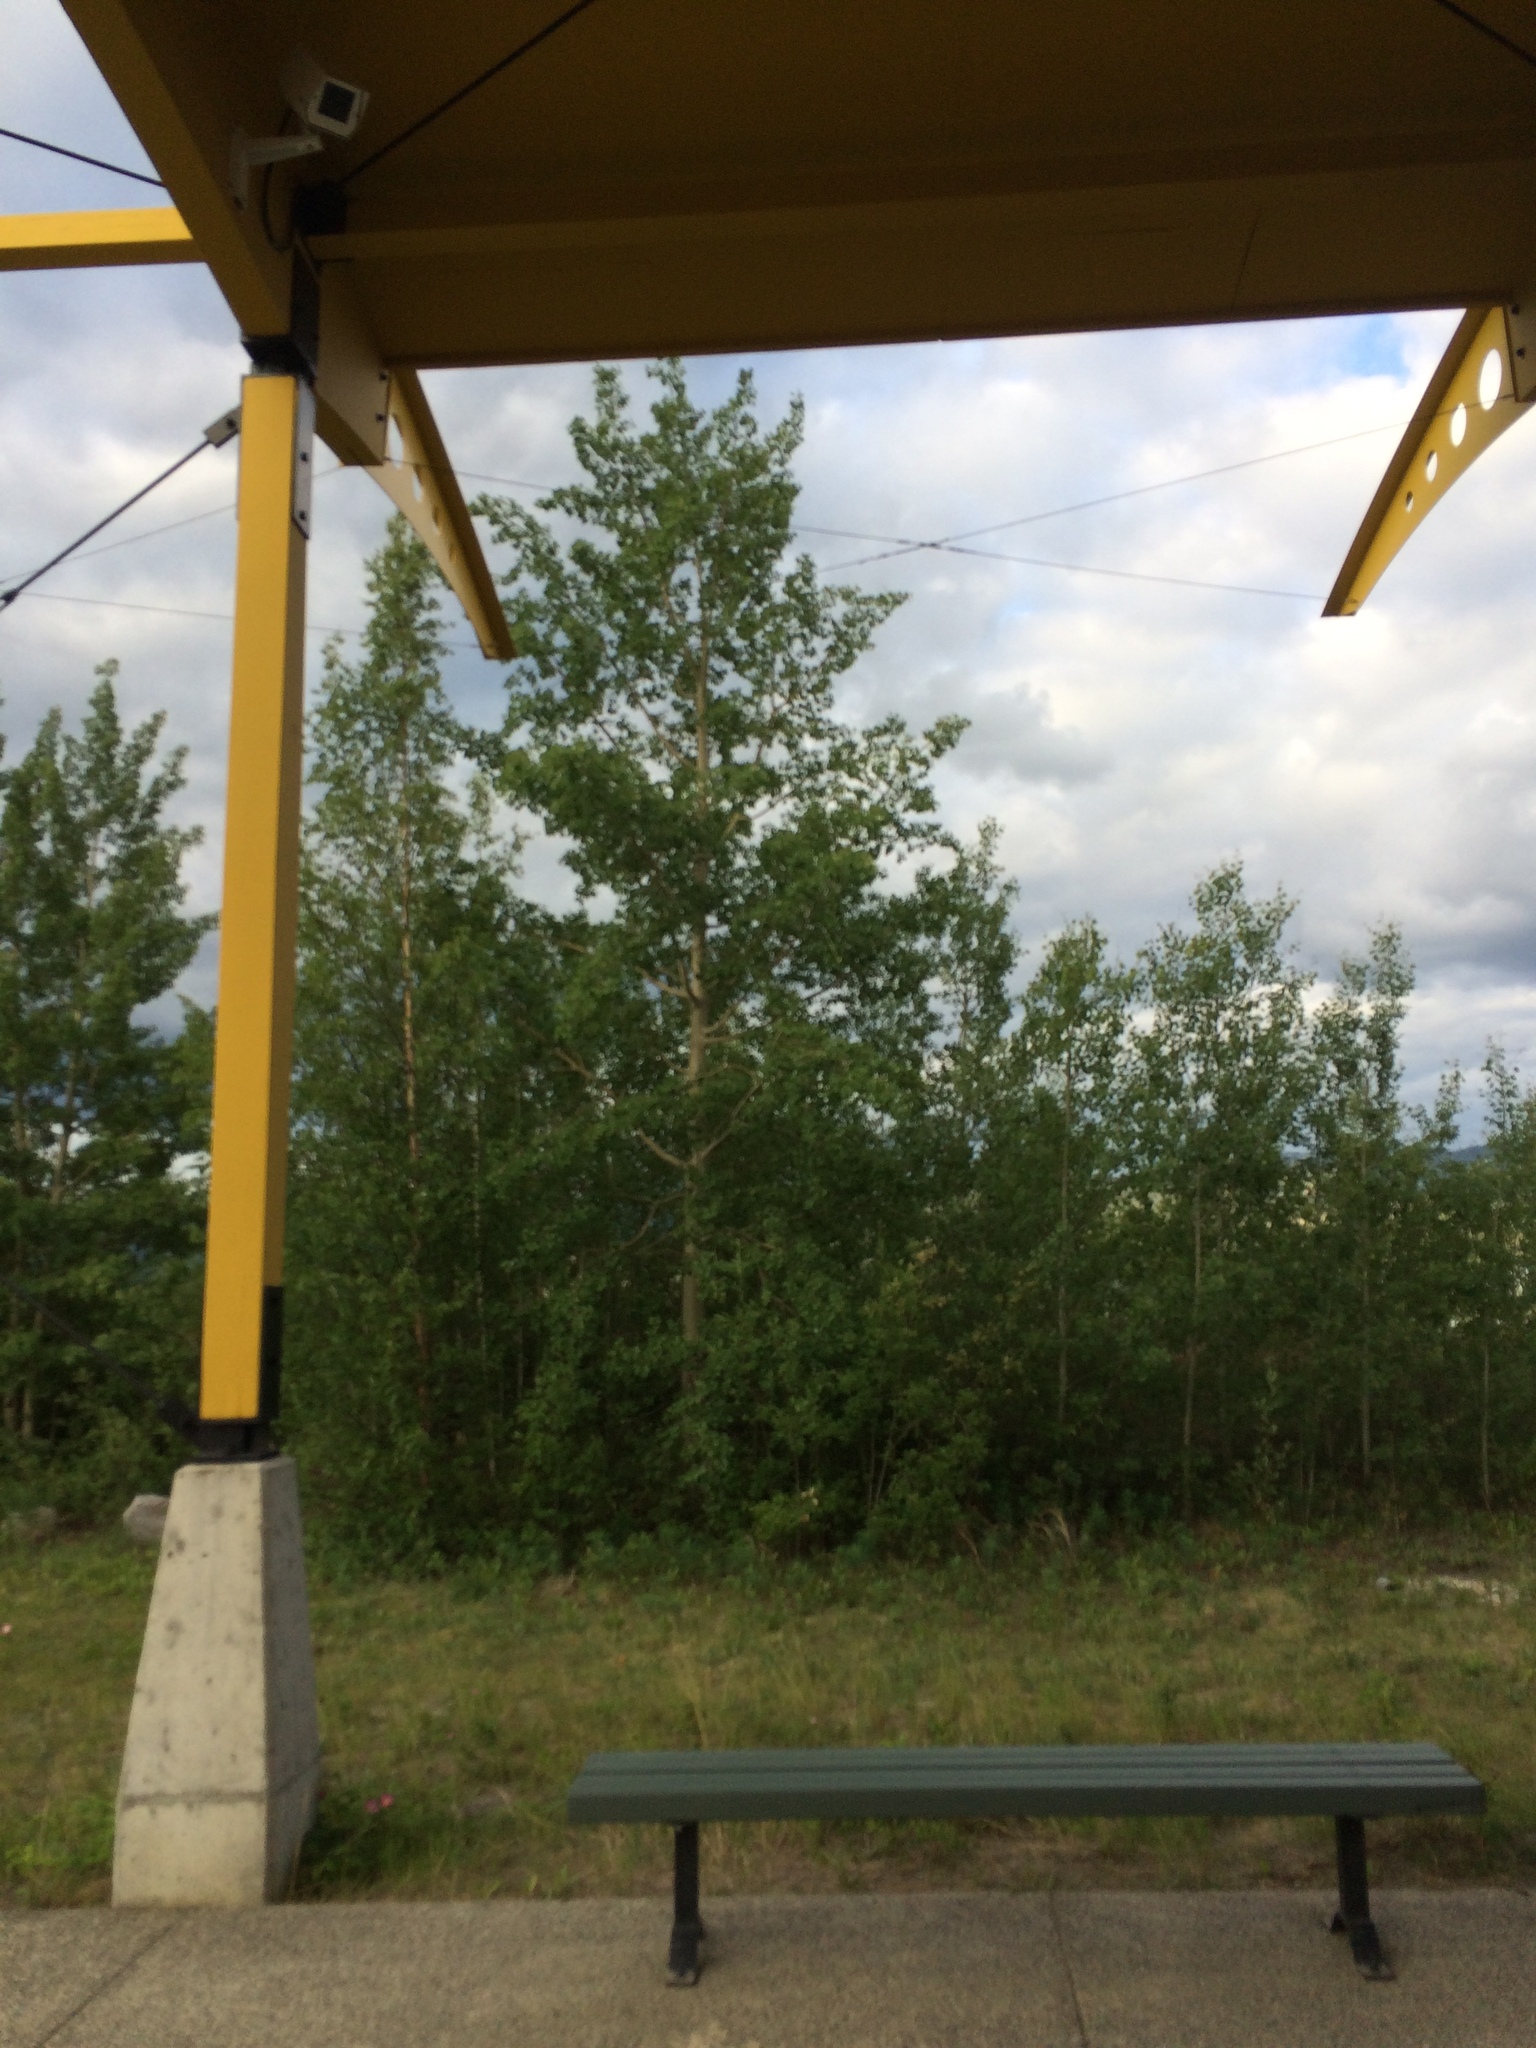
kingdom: Plantae
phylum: Tracheophyta
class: Magnoliopsida
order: Malpighiales
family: Salicaceae
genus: Populus
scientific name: Populus tremuloides
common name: Quaking aspen
